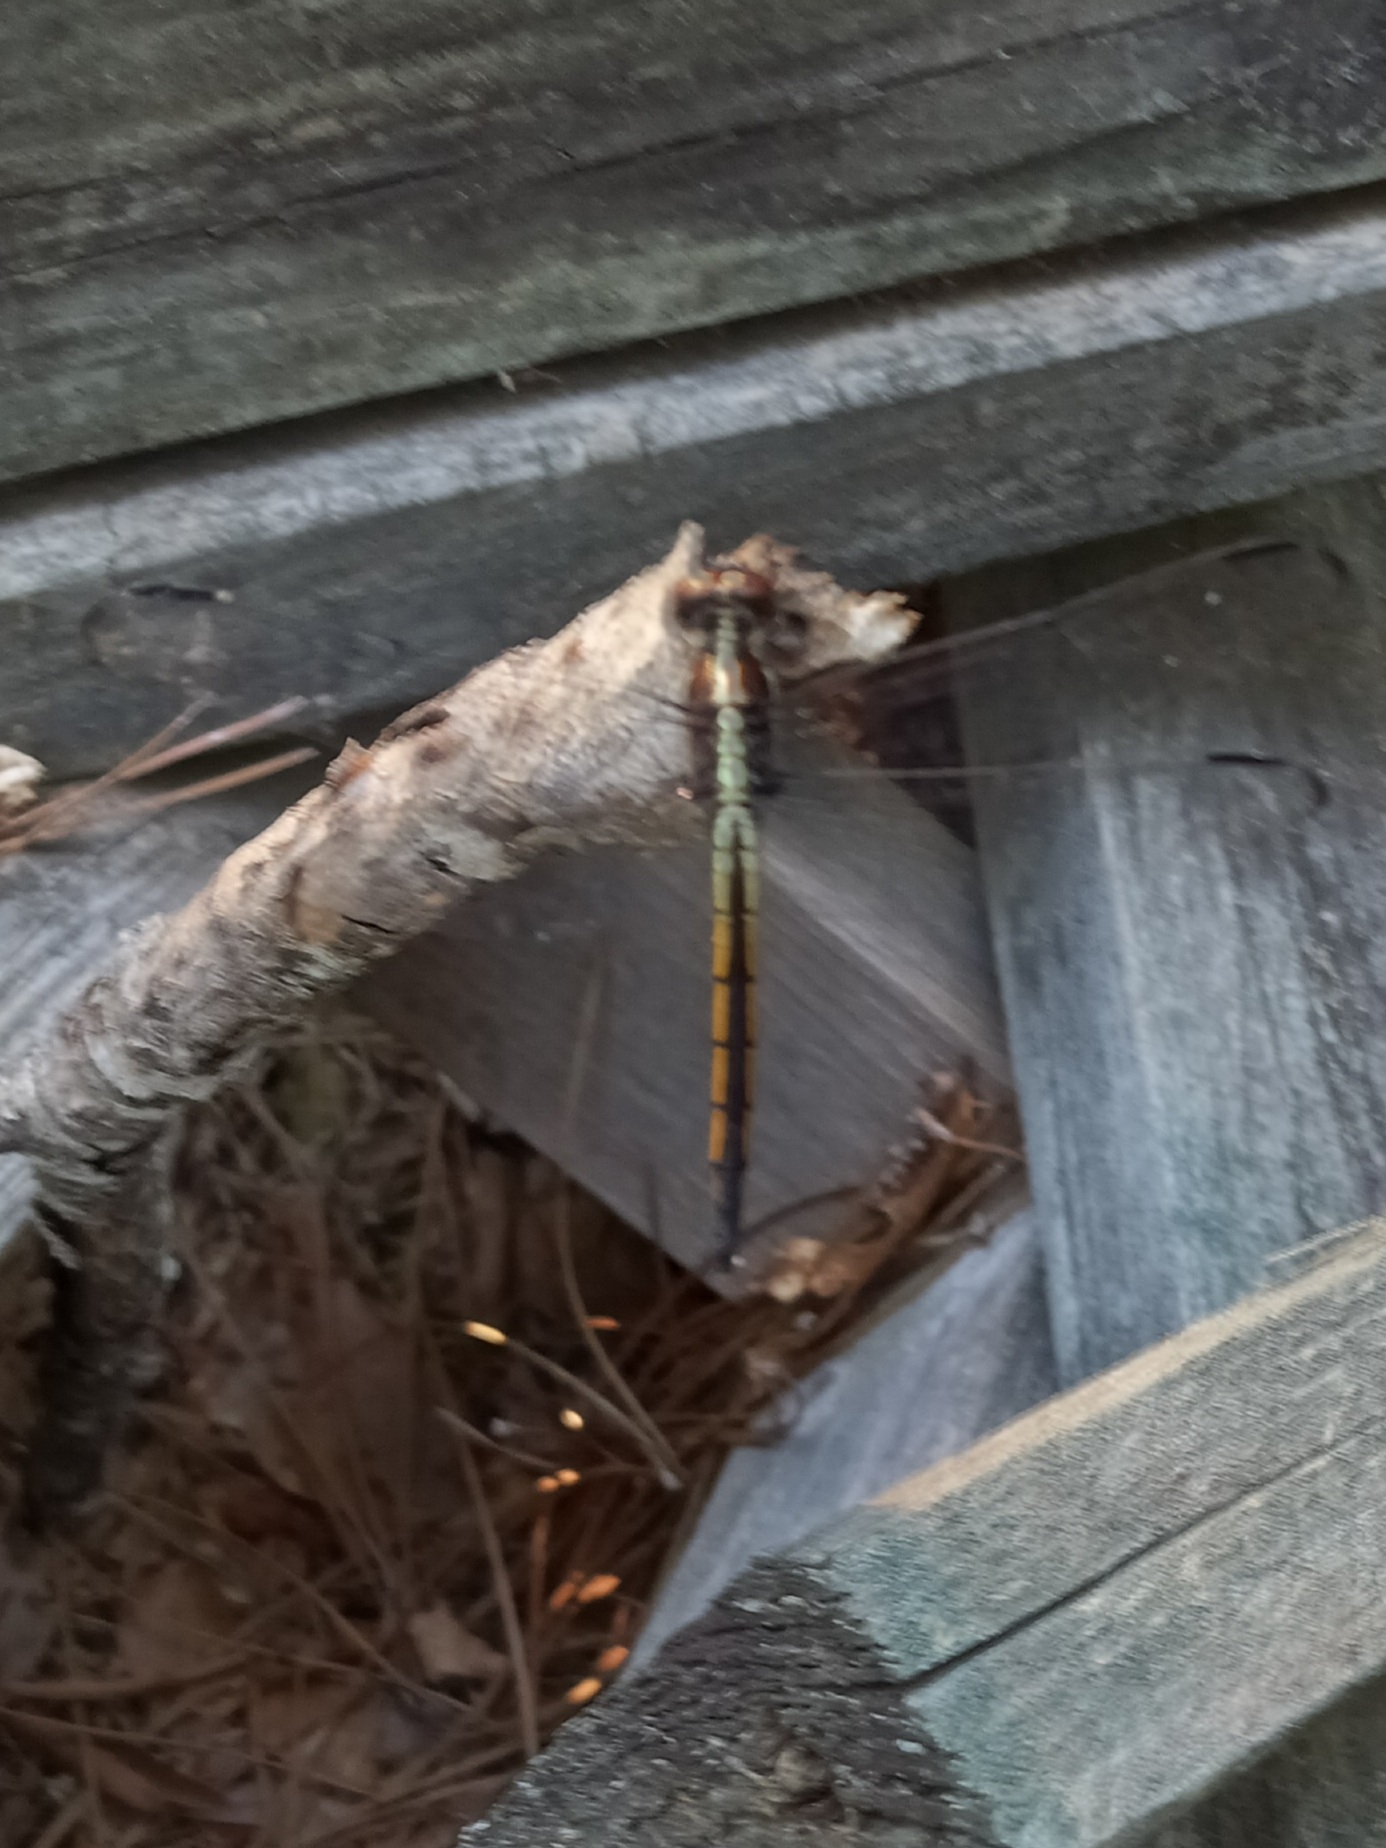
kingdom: Animalia
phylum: Arthropoda
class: Insecta
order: Odonata
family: Libellulidae
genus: Libellula
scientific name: Libellula incesta
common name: Slaty skimmer
